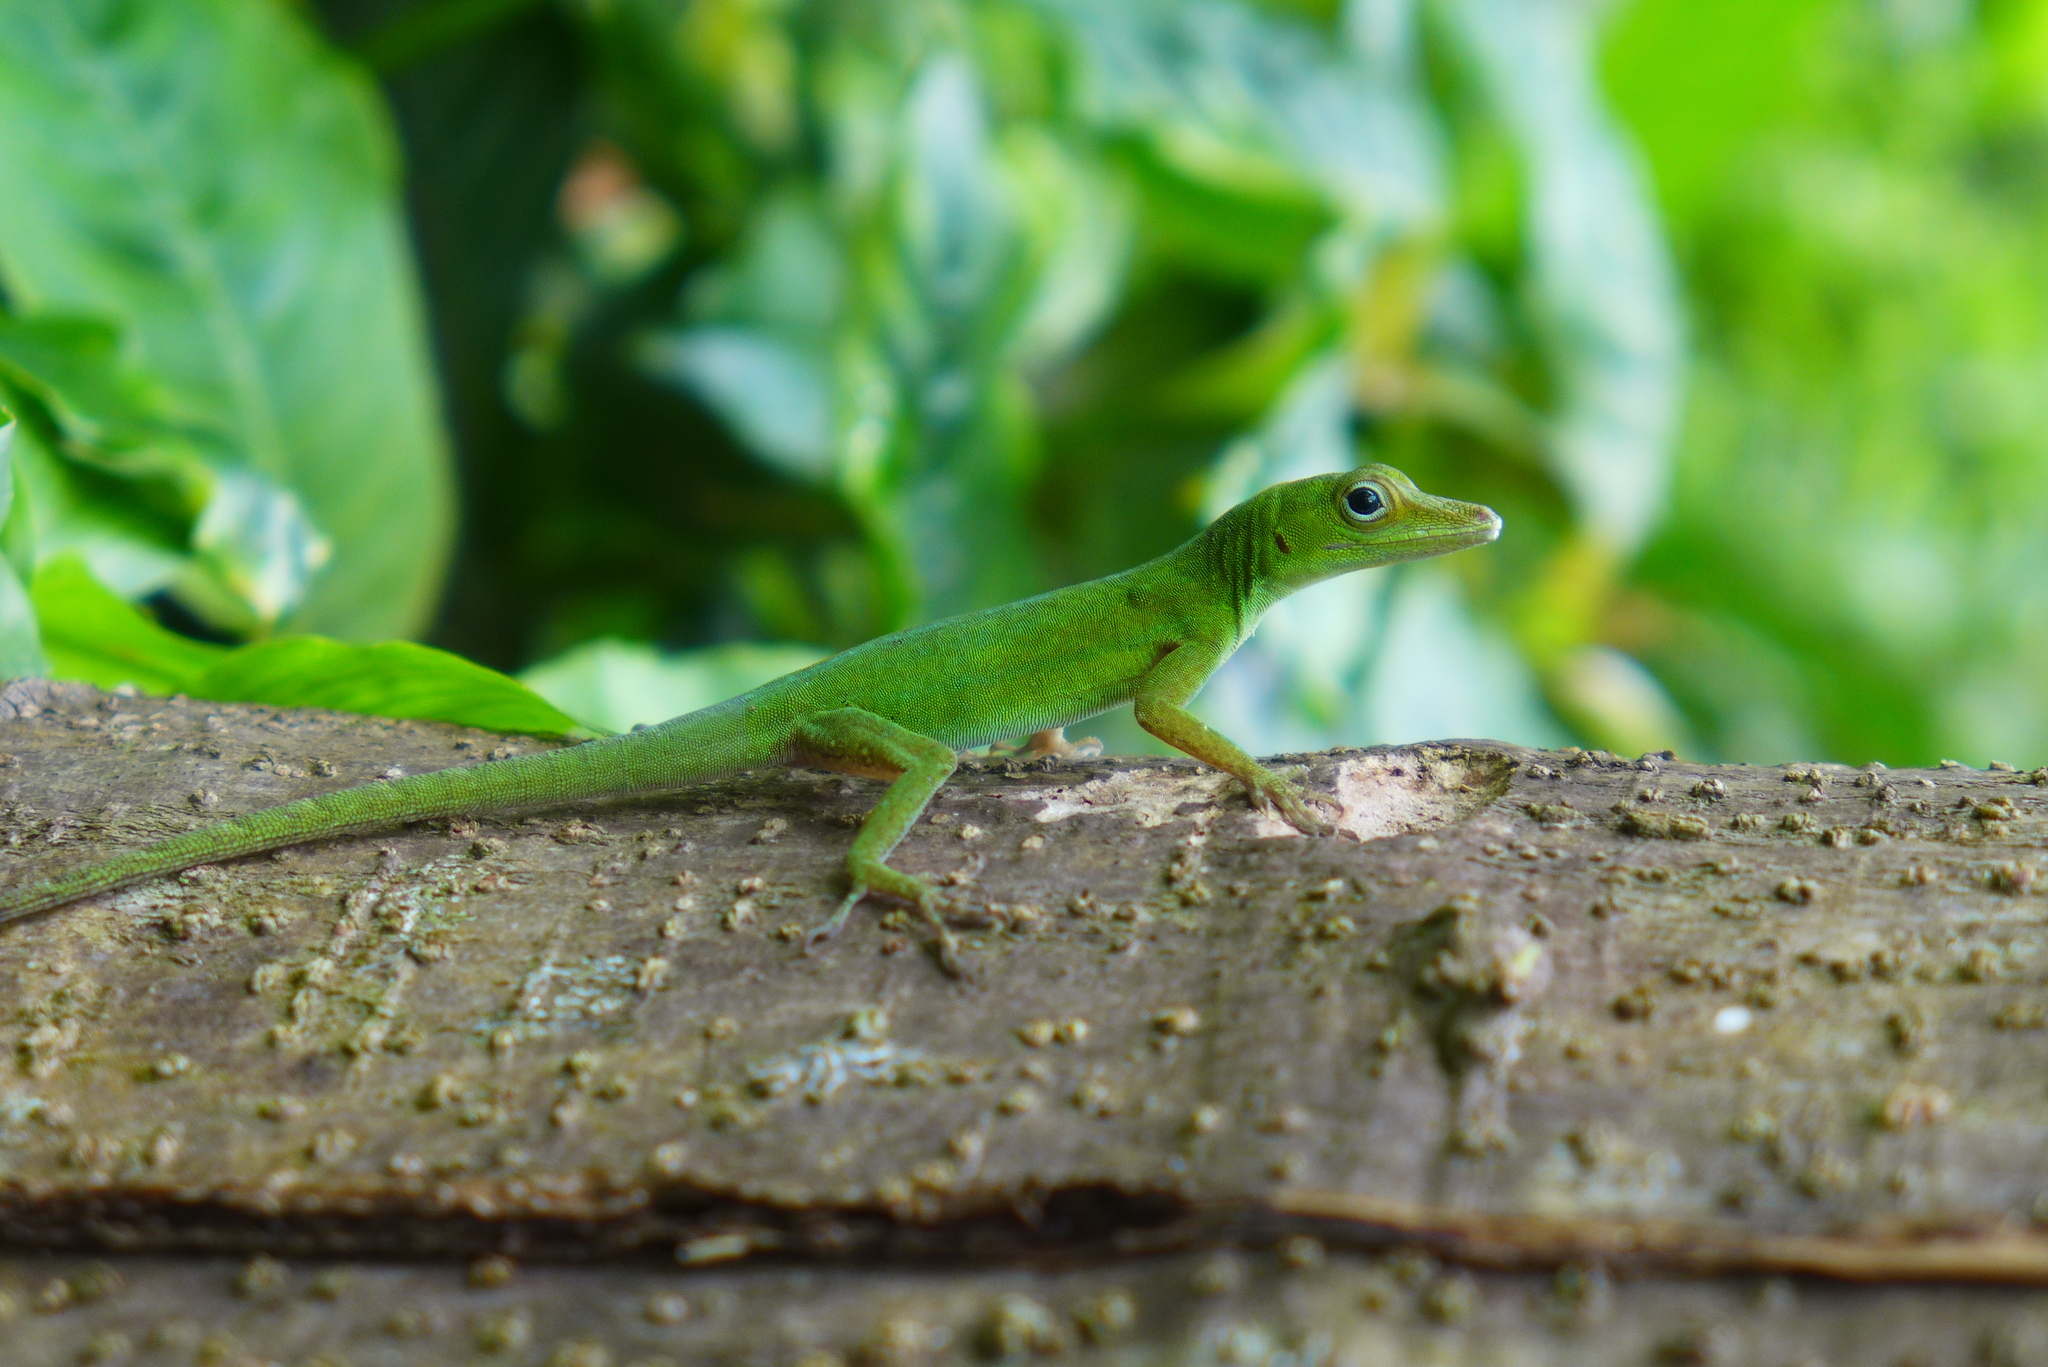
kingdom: Animalia
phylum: Chordata
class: Squamata
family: Dactyloidae
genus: Anolis
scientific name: Anolis evermanni
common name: Emerald anole
